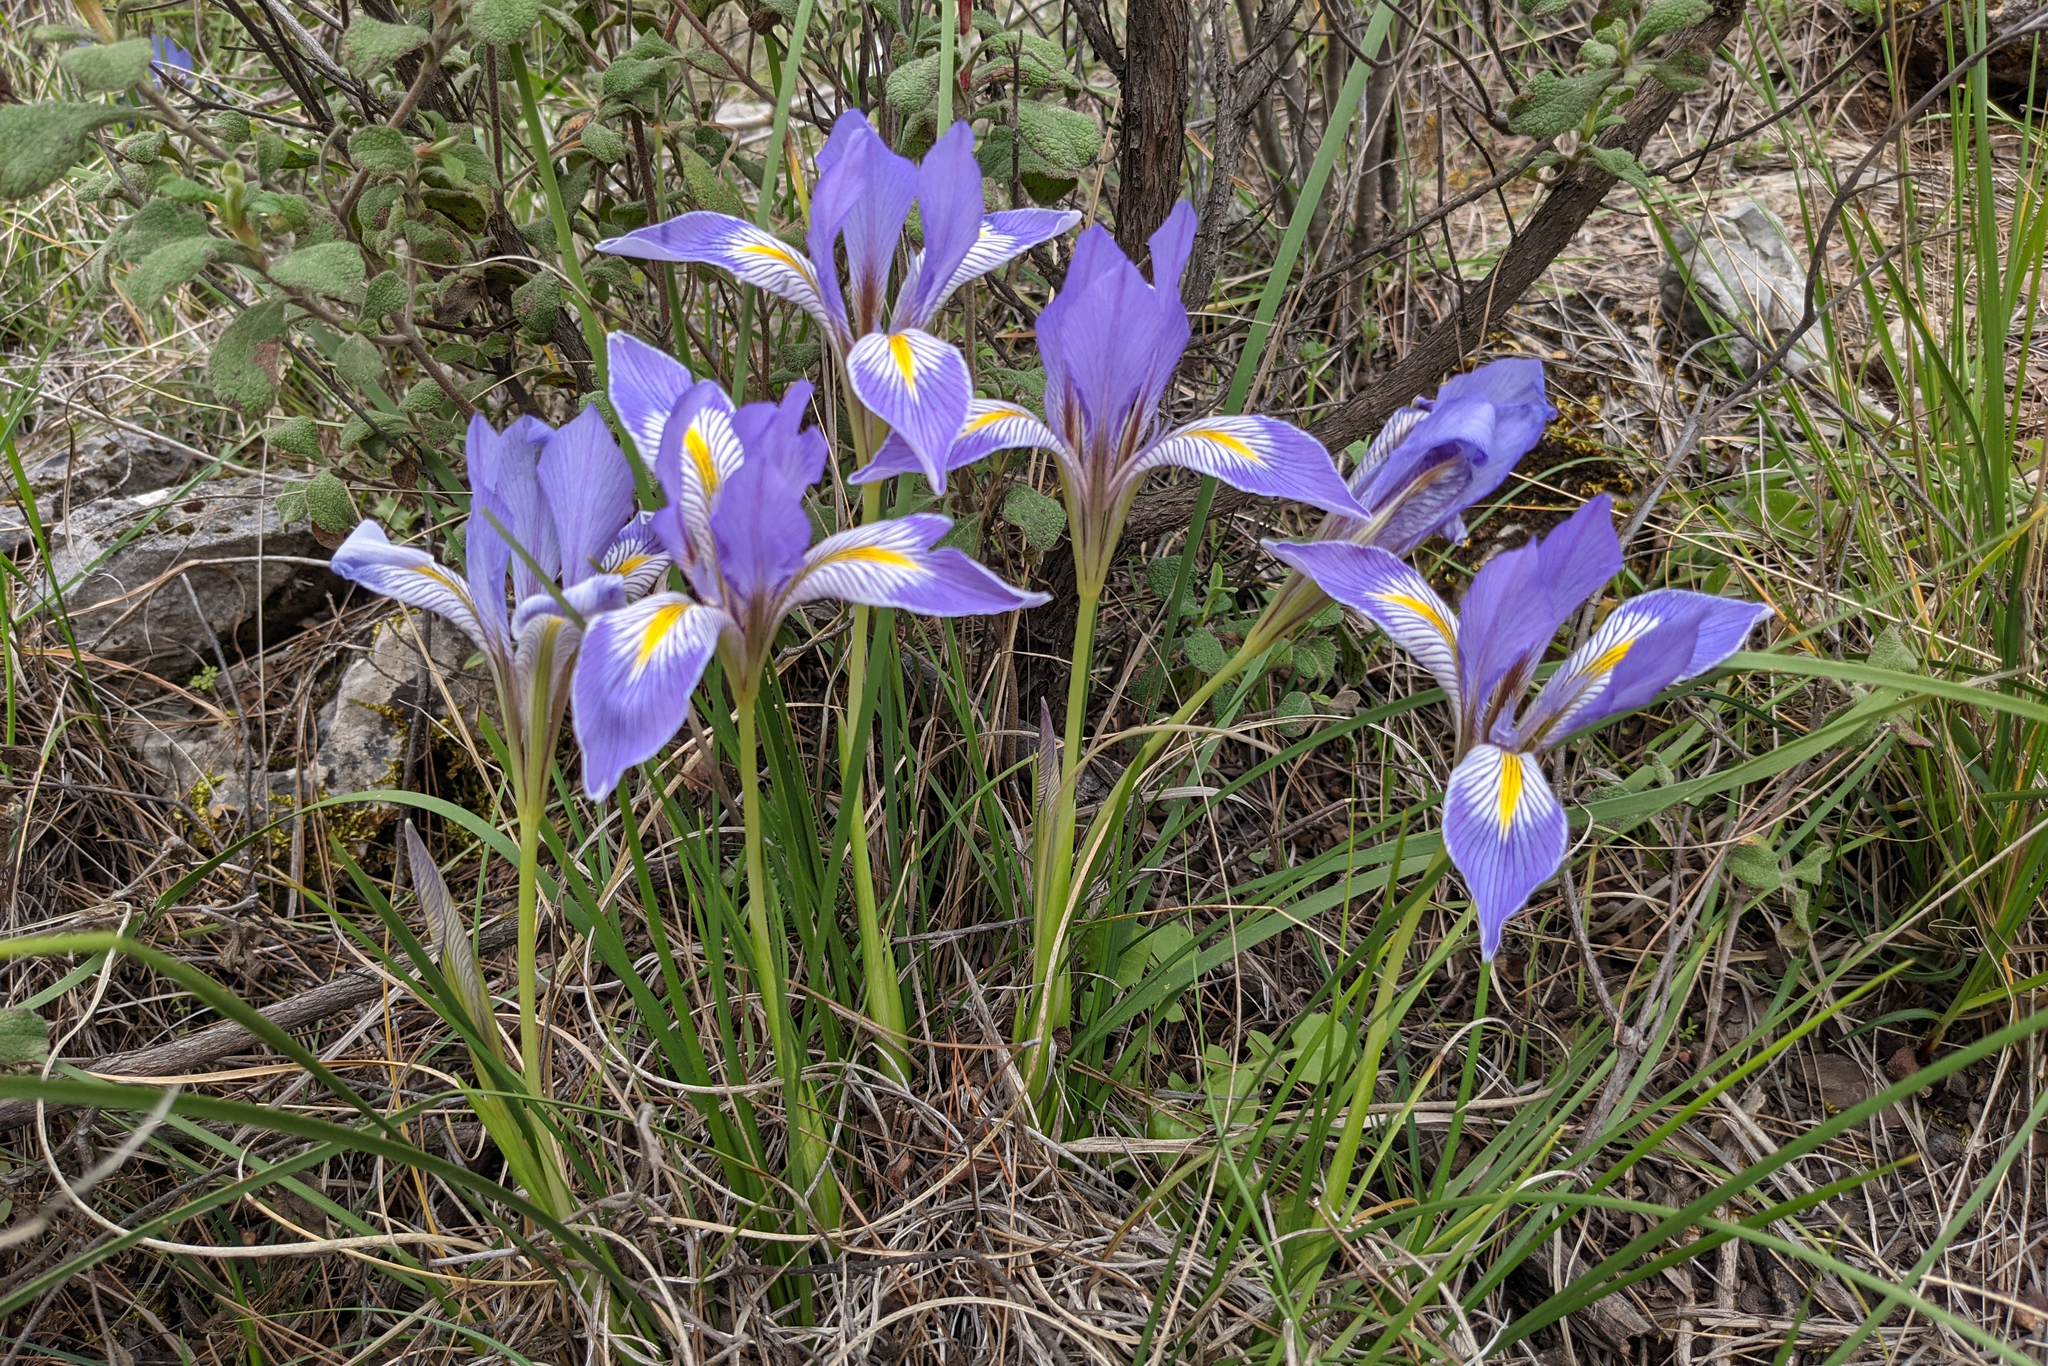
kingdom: Plantae
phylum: Tracheophyta
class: Liliopsida
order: Asparagales
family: Iridaceae
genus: Iris
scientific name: Iris unguicularis
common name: Algerian iris
